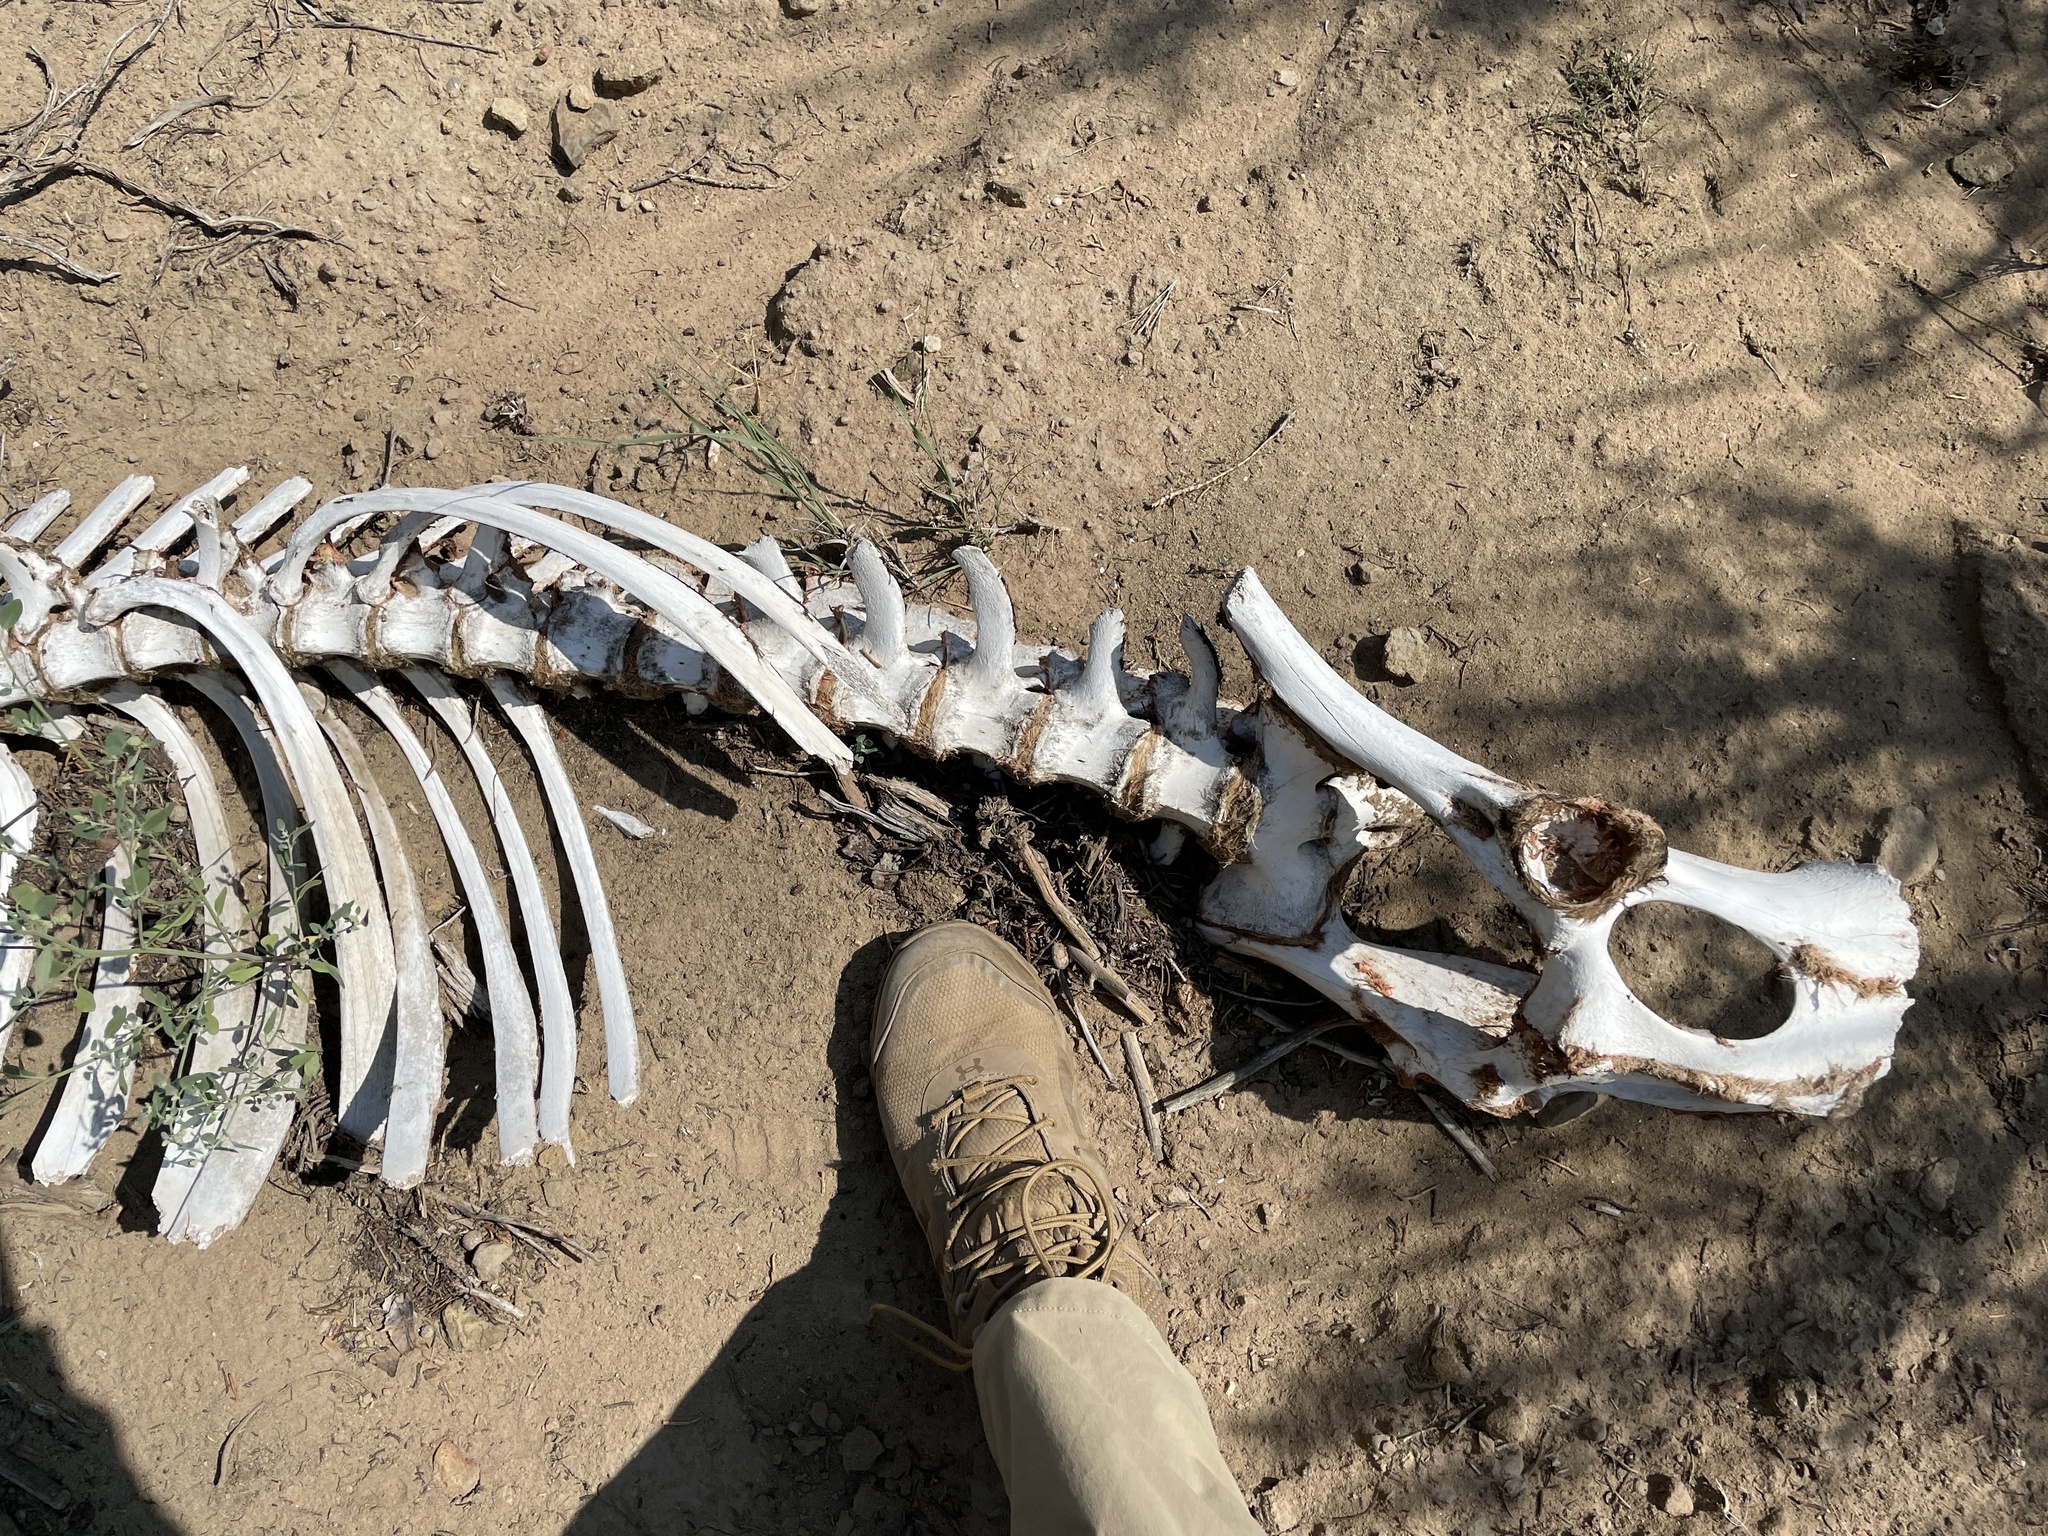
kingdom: Animalia
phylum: Chordata
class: Mammalia
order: Artiodactyla
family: Cervidae
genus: Cervus
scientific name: Cervus elaphus
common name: Red deer
